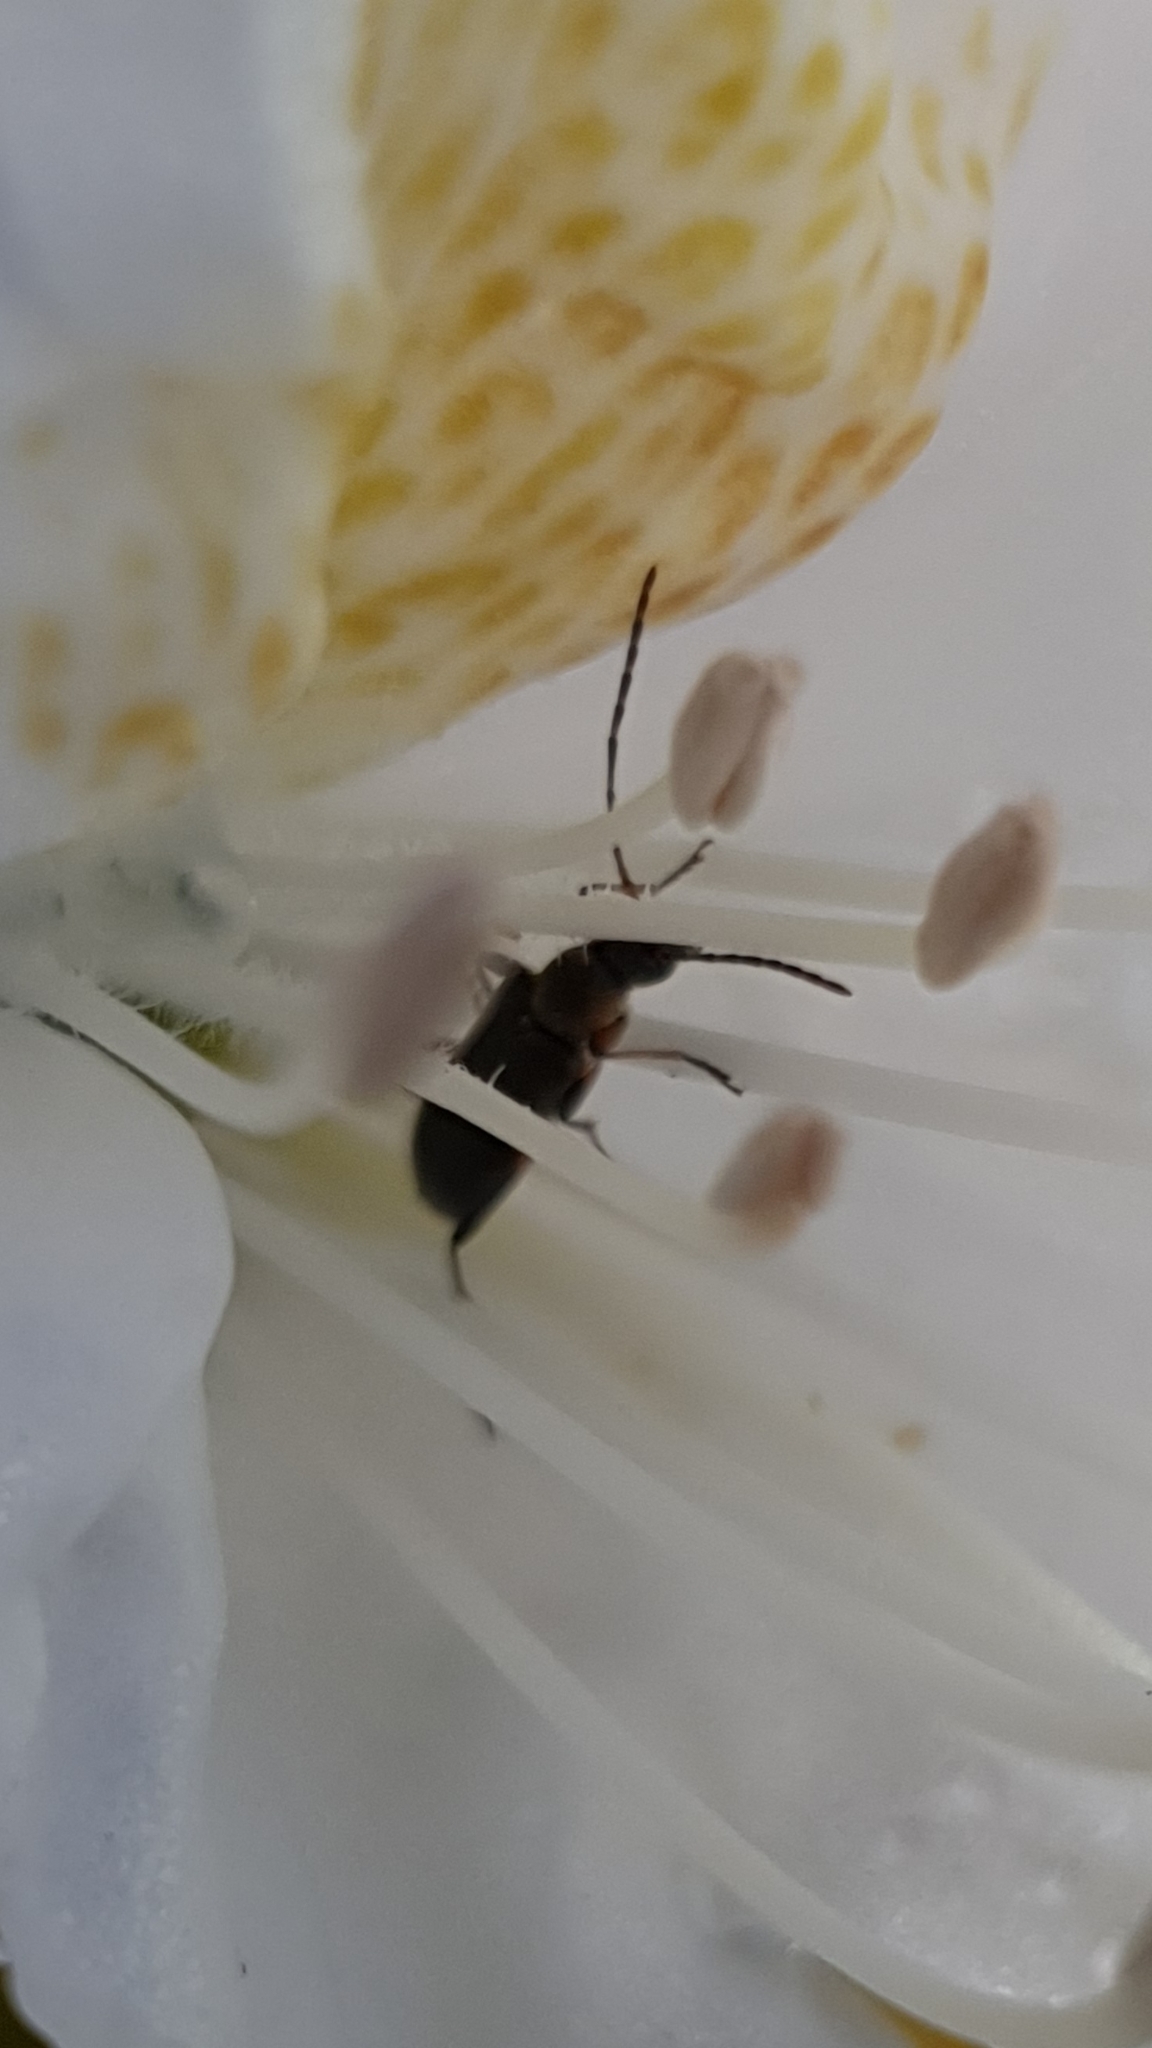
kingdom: Animalia
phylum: Arthropoda
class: Insecta
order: Coleoptera
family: Cerambycidae
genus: Grammoptera
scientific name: Grammoptera ruficornis
